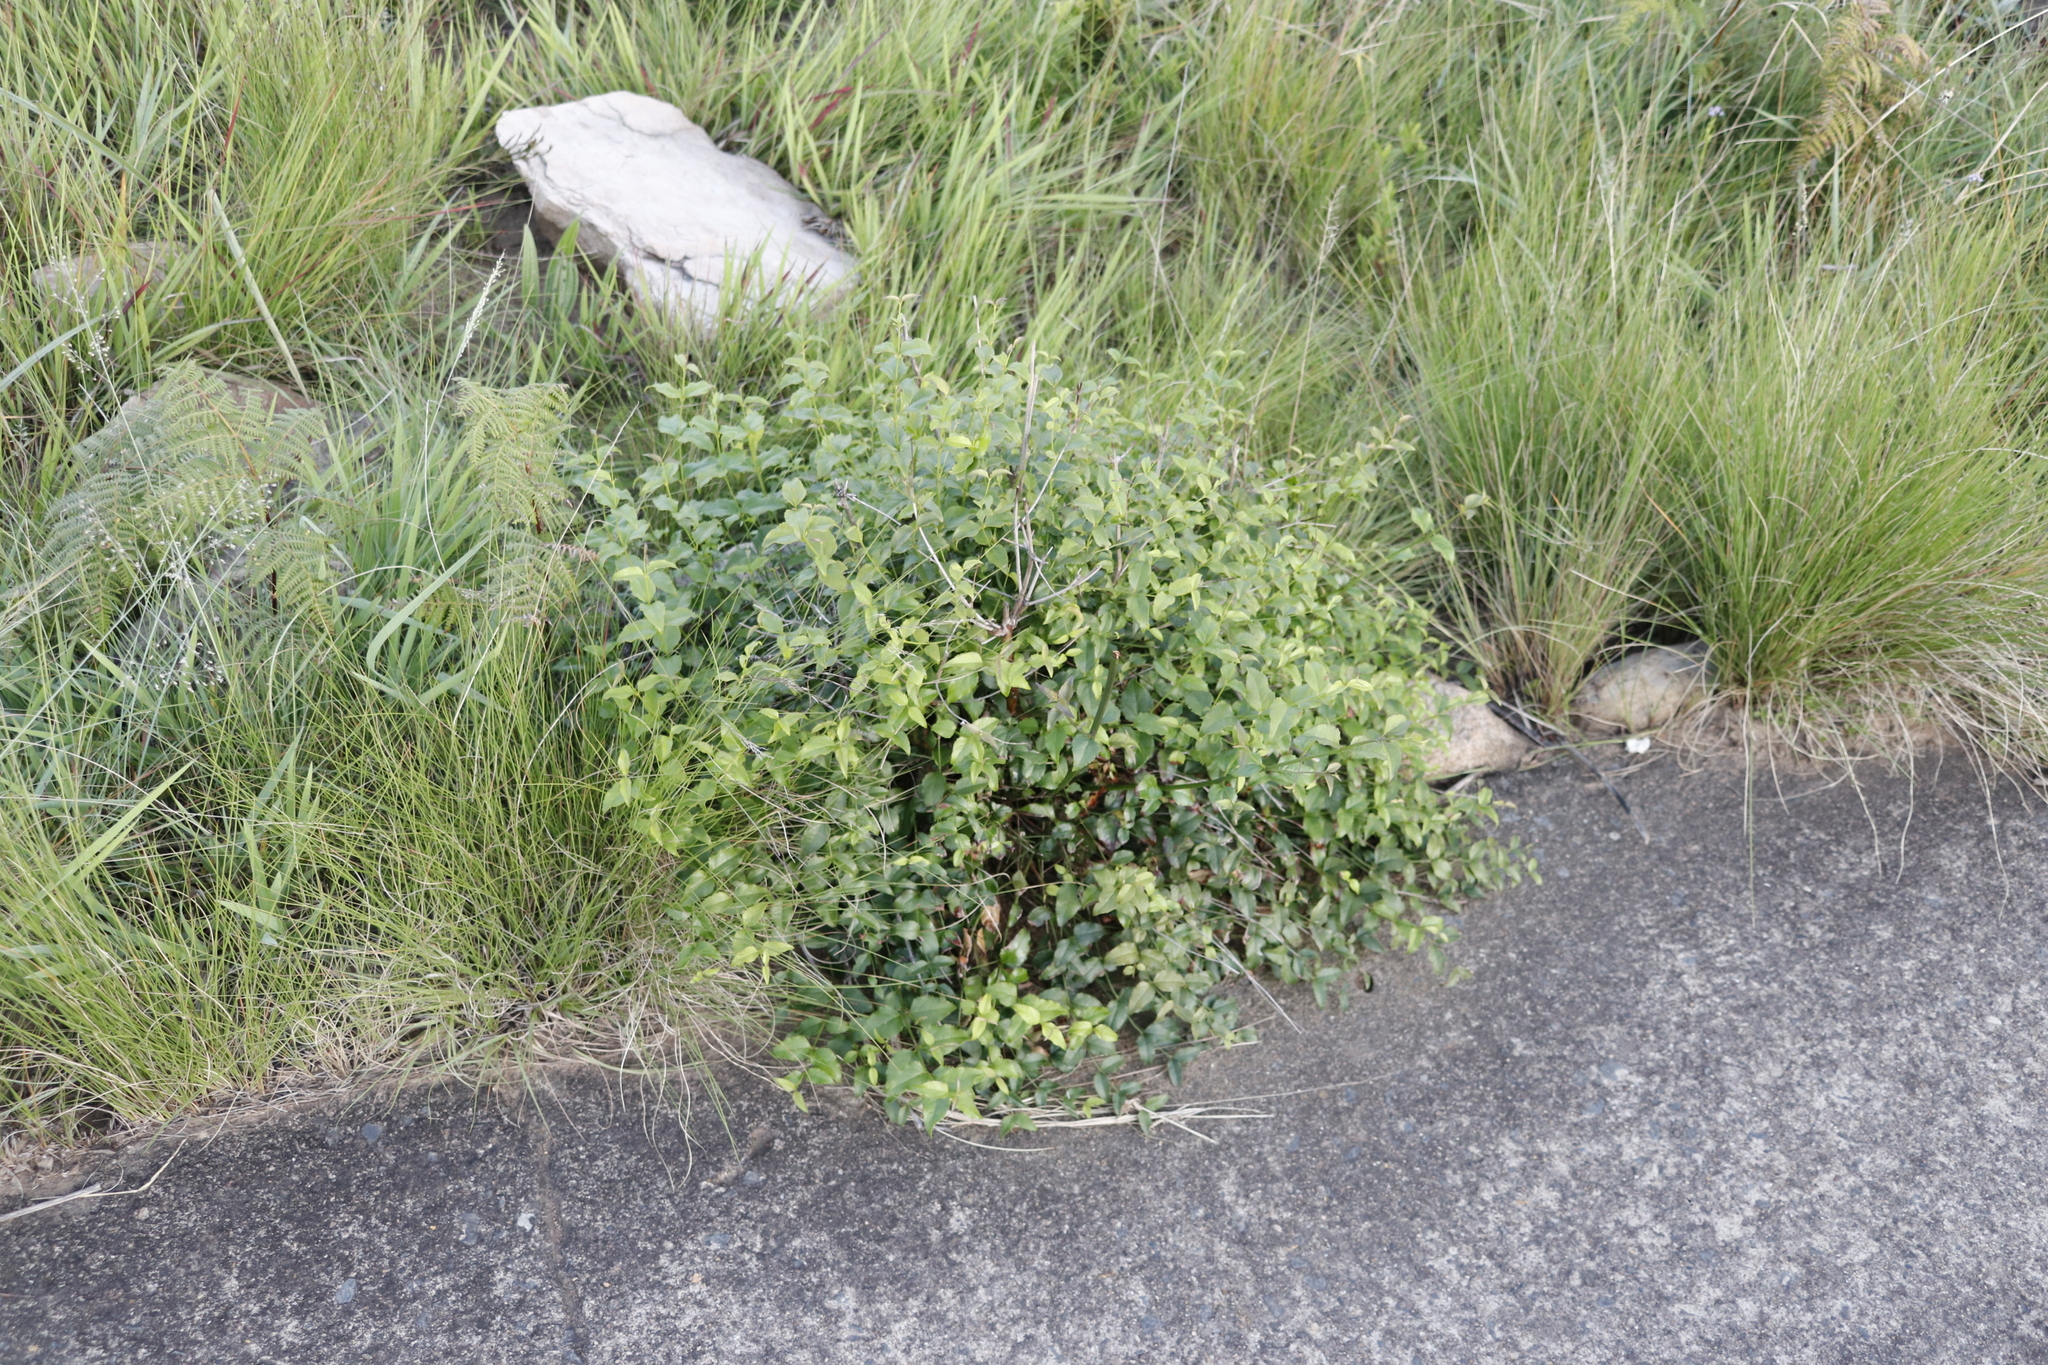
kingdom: Plantae
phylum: Tracheophyta
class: Magnoliopsida
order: Lamiales
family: Stilbaceae
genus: Halleria
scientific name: Halleria lucida
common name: Tree fuschia
